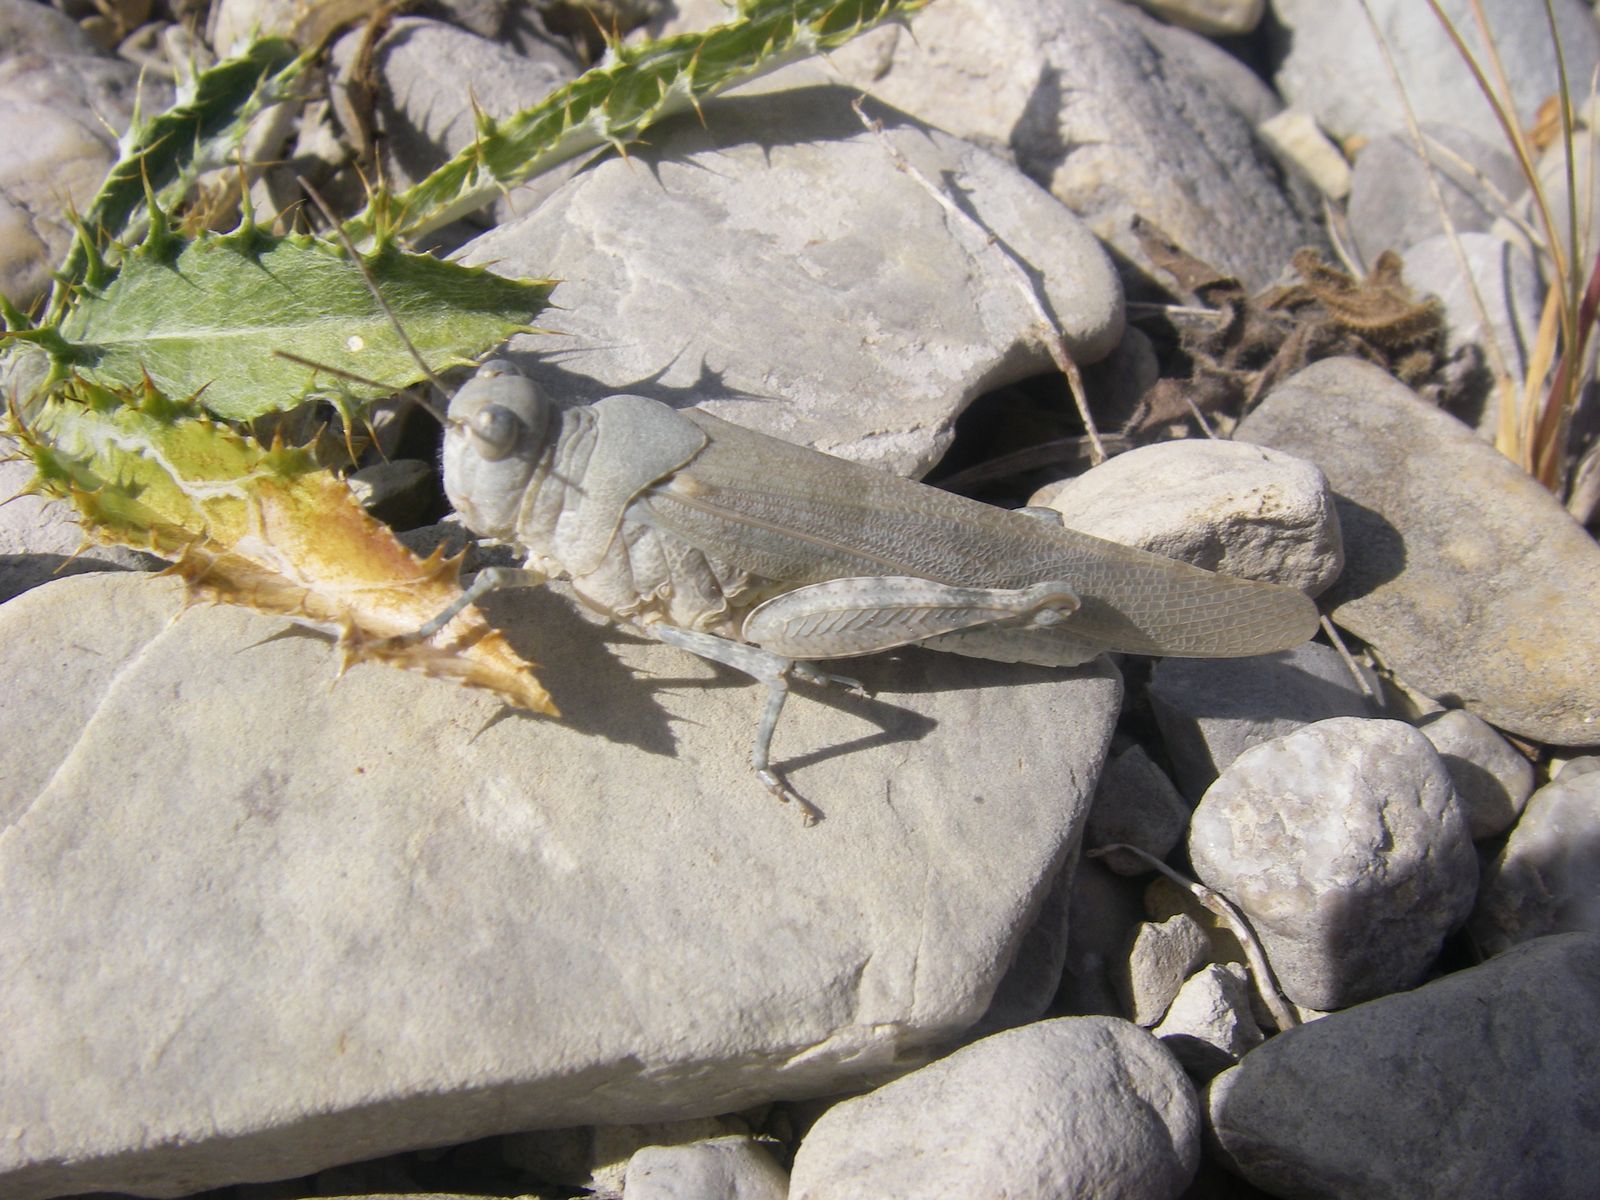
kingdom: Animalia
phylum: Arthropoda
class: Insecta
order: Orthoptera
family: Acrididae
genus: Sphingonotus
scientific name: Sphingonotus caerulans
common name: Blue-winged locust
